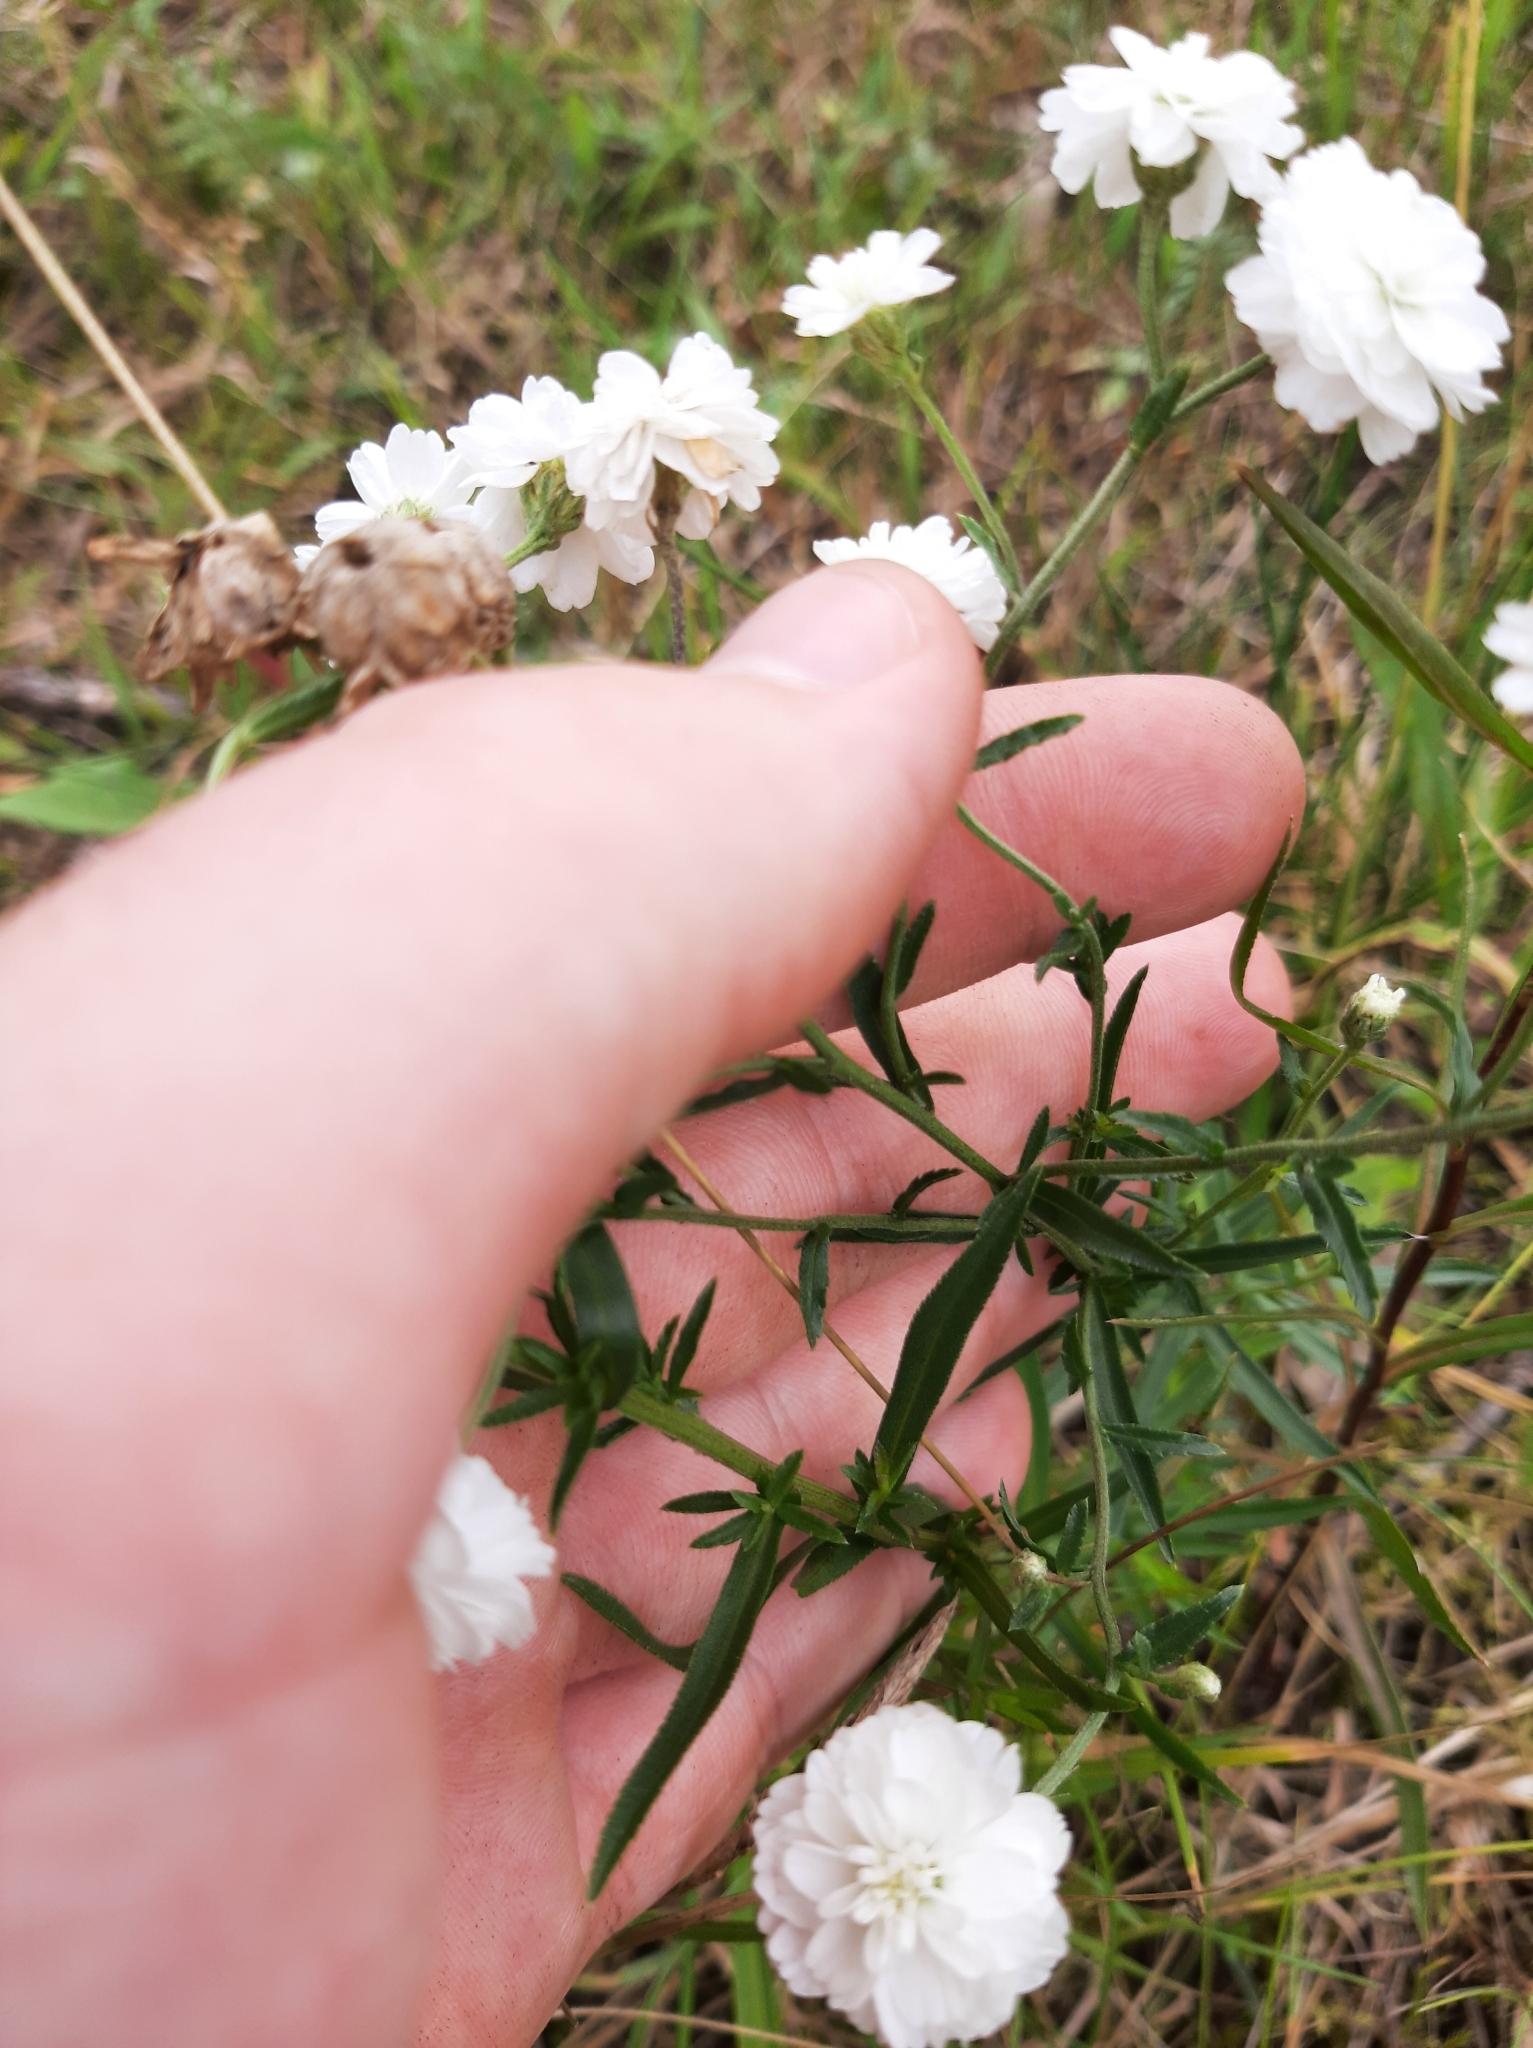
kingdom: Plantae
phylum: Tracheophyta
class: Magnoliopsida
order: Asterales
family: Asteraceae
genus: Achillea
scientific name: Achillea ptarmica
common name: Sneezeweed
